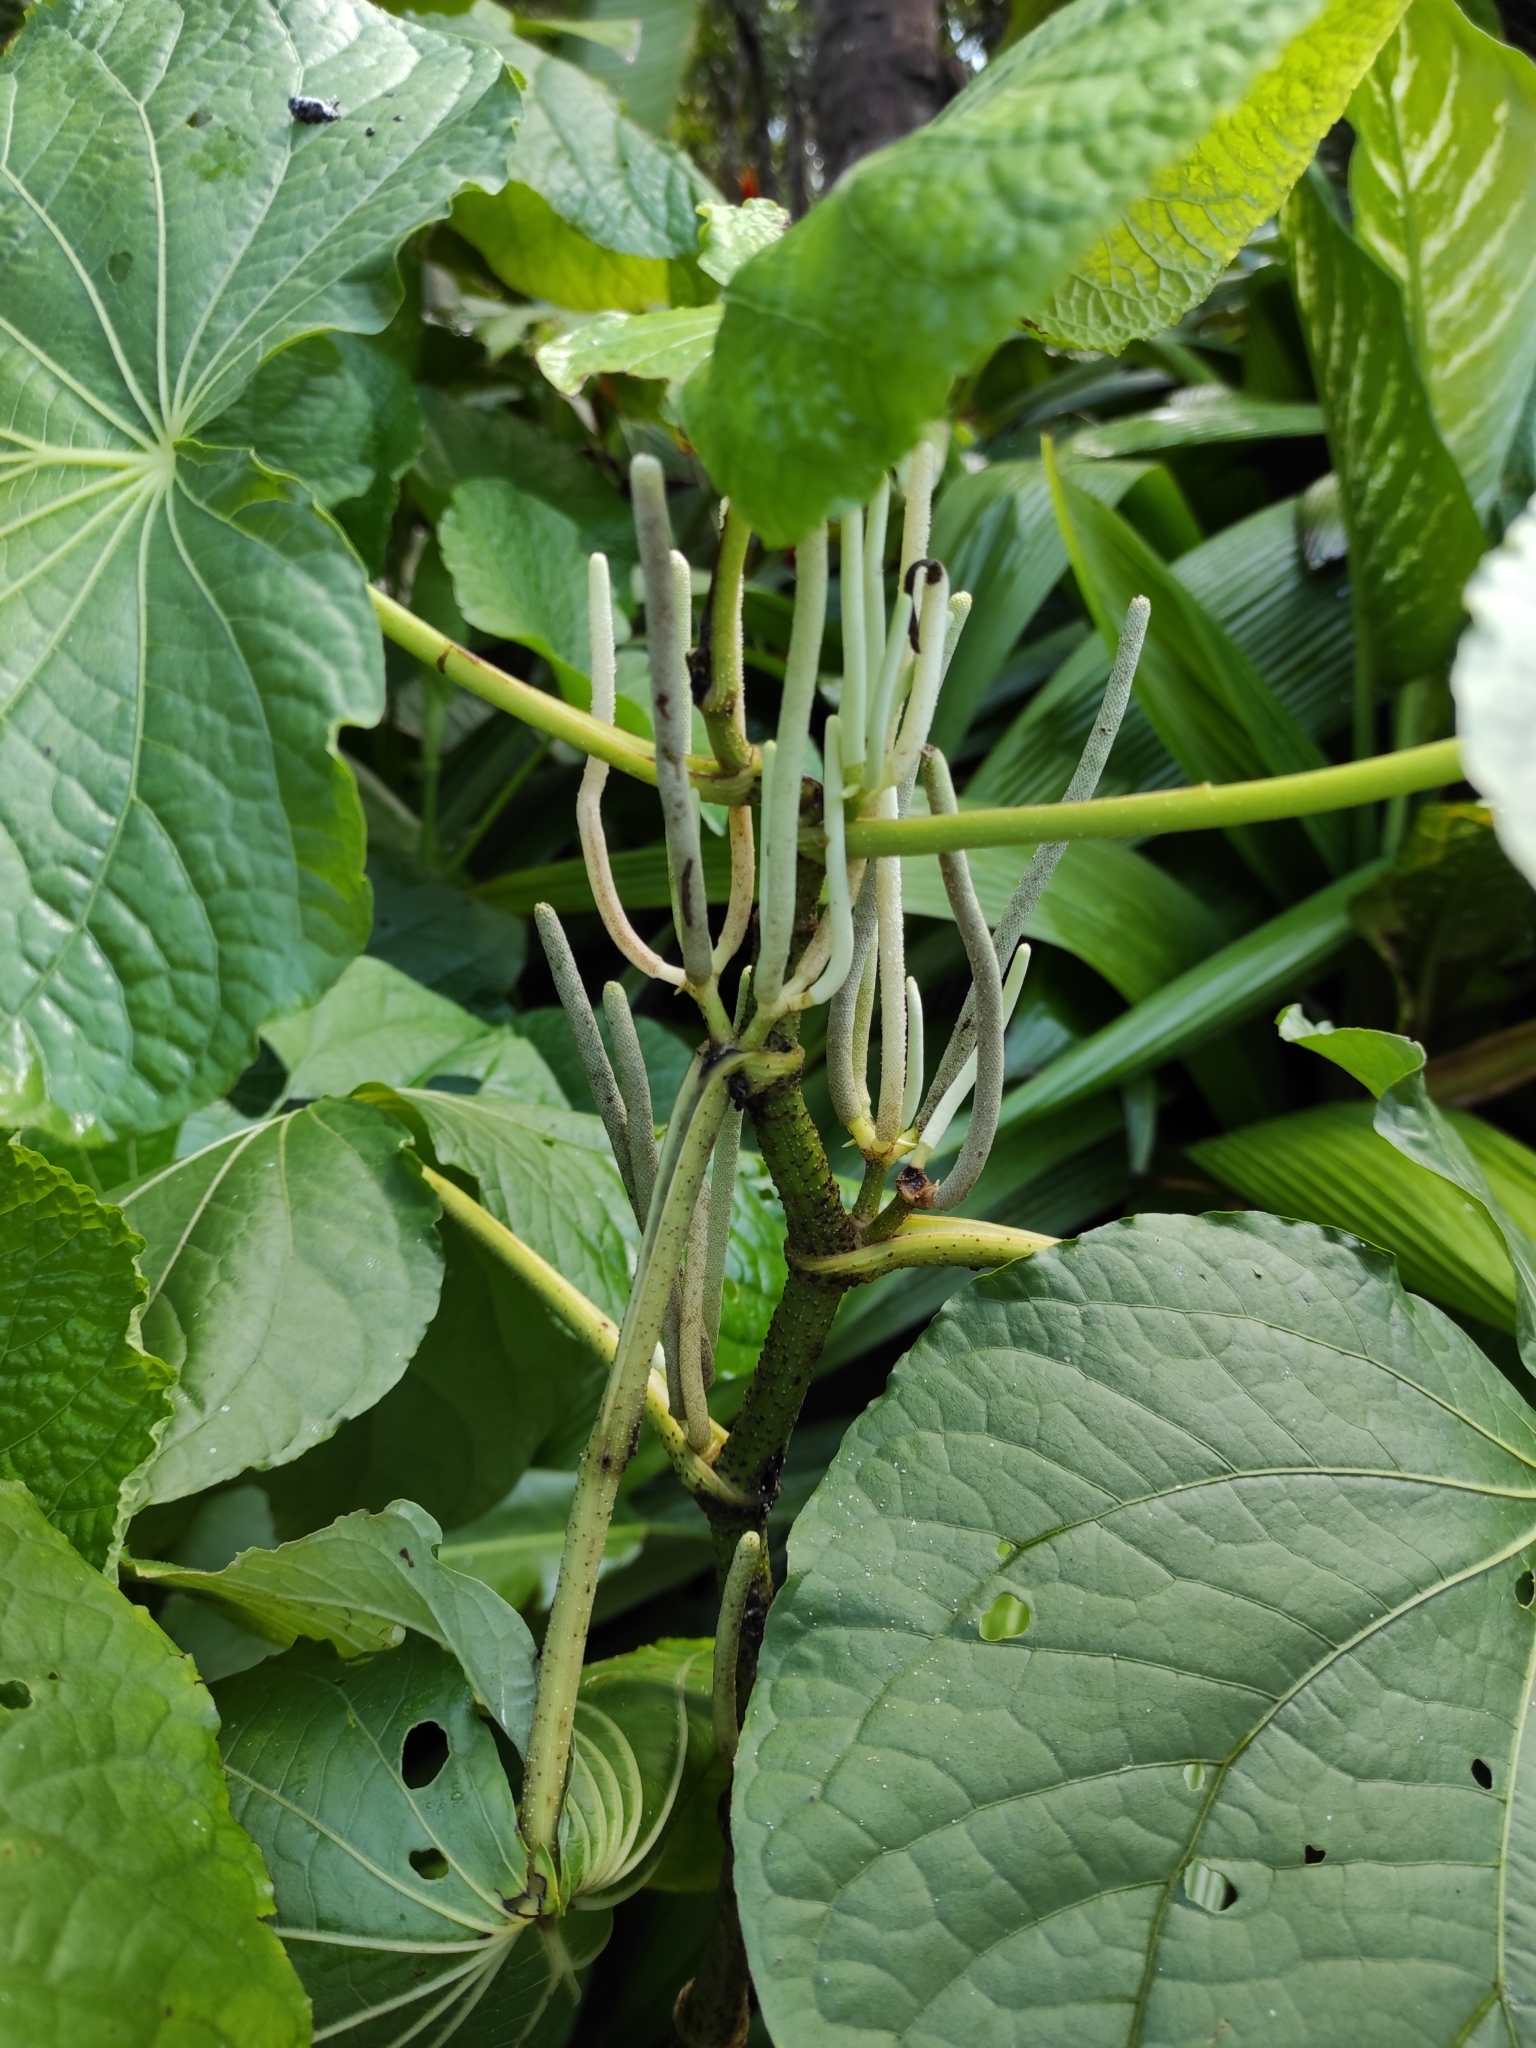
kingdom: Plantae
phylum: Tracheophyta
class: Magnoliopsida
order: Piperales
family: Piperaceae
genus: Piper
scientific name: Piper umbellatum
